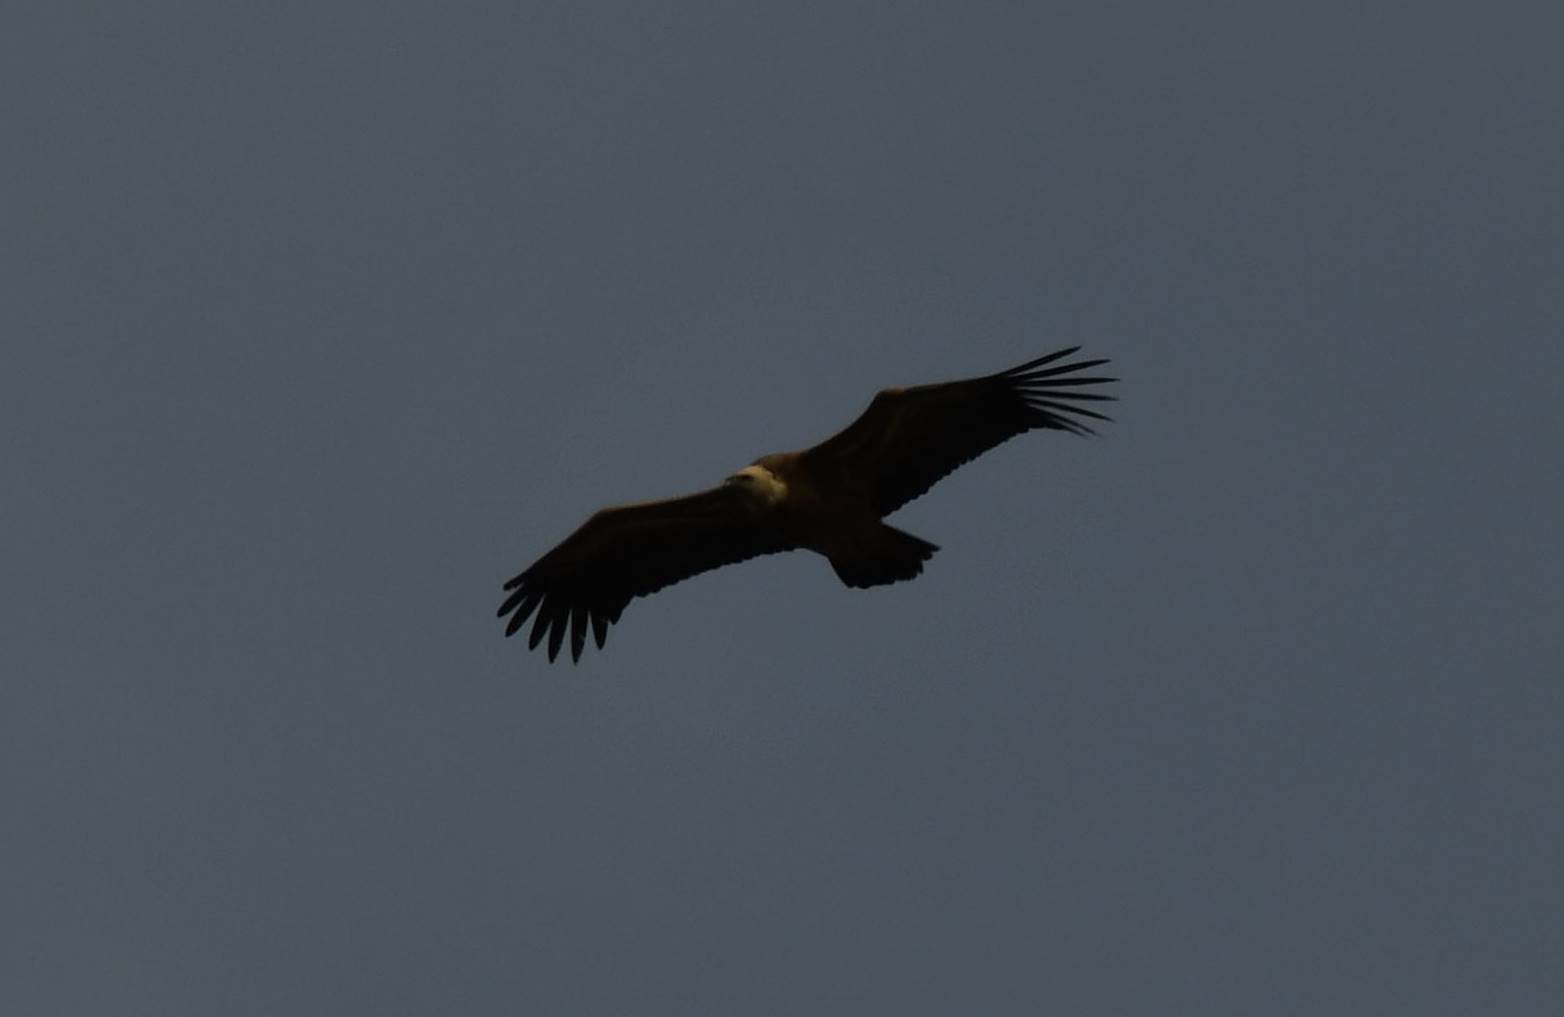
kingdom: Animalia
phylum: Chordata
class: Aves
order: Accipitriformes
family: Accipitridae
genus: Gyps
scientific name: Gyps fulvus
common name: Griffon vulture
